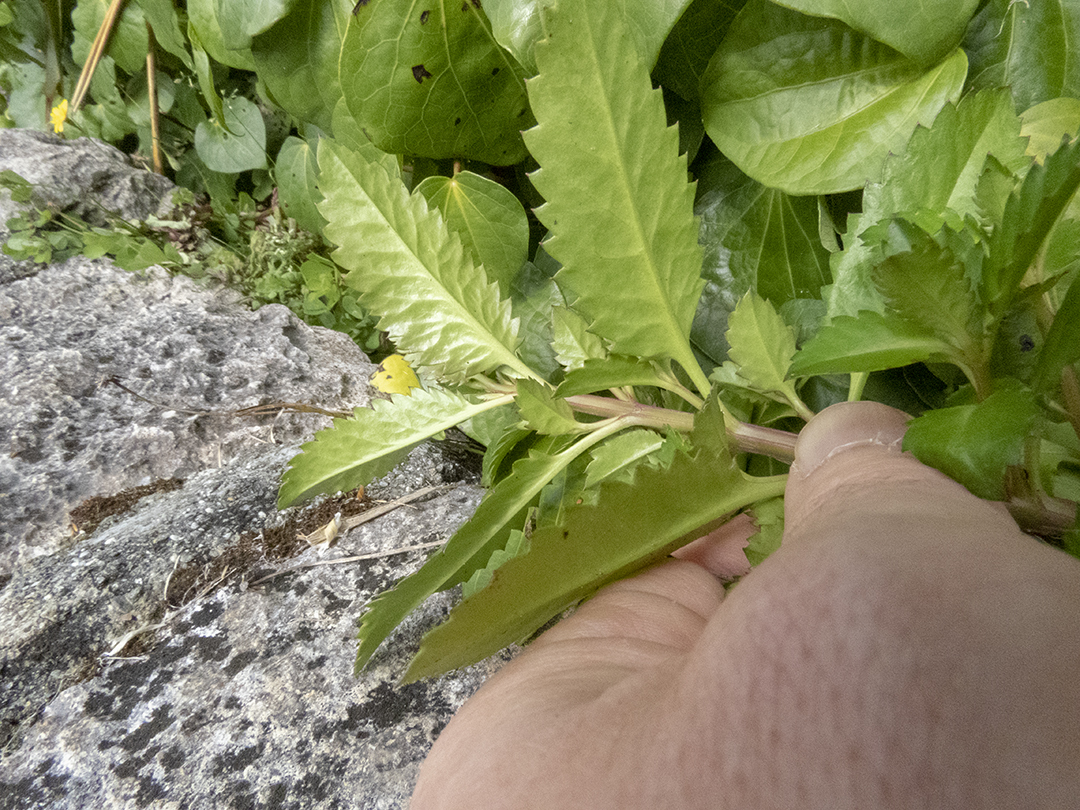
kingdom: Plantae
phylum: Tracheophyta
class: Magnoliopsida
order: Saxifragales
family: Haloragaceae
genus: Haloragis
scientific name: Haloragis erecta
